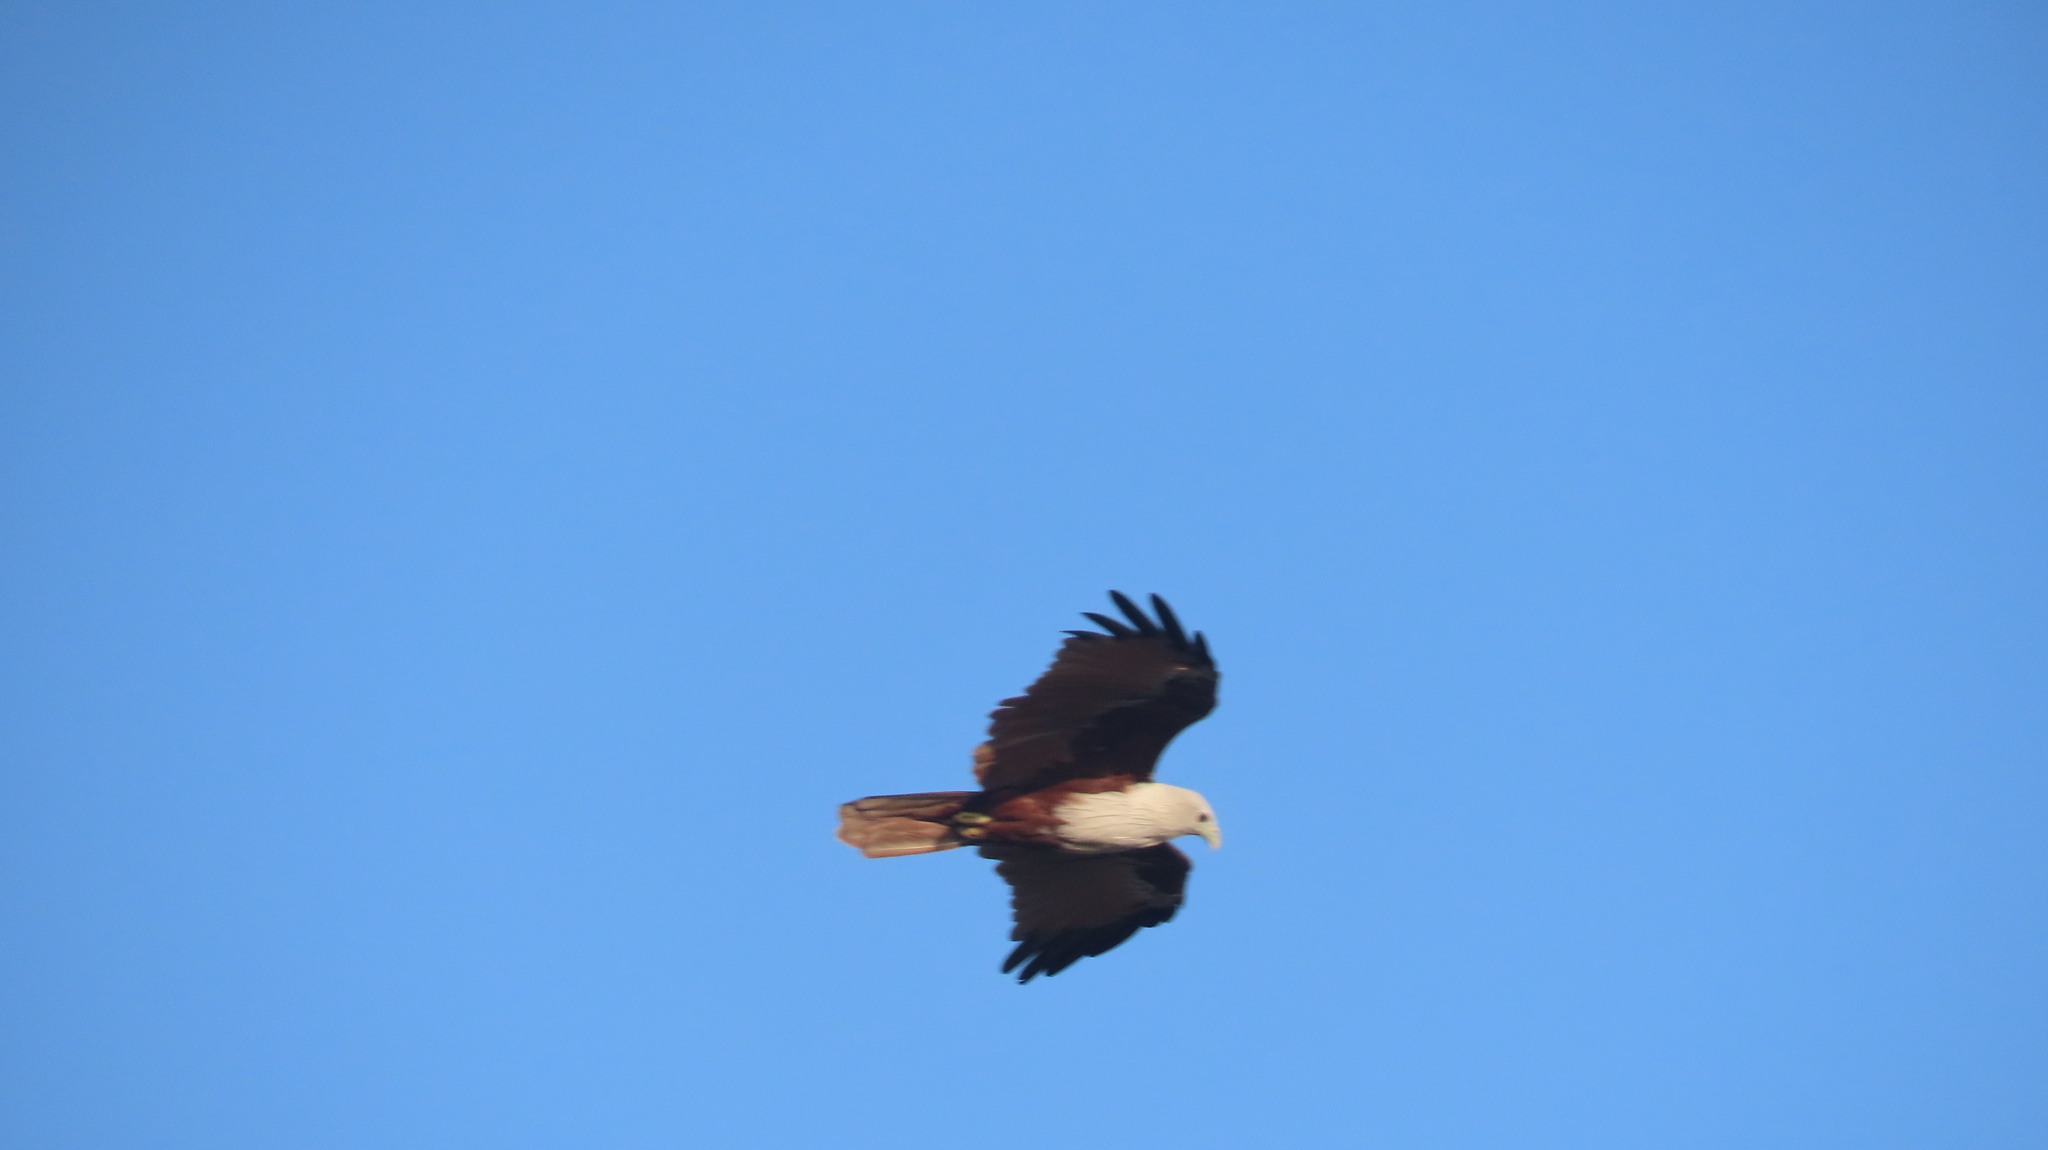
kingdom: Animalia
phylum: Chordata
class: Aves
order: Accipitriformes
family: Accipitridae
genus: Haliastur
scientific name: Haliastur indus
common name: Brahminy kite
